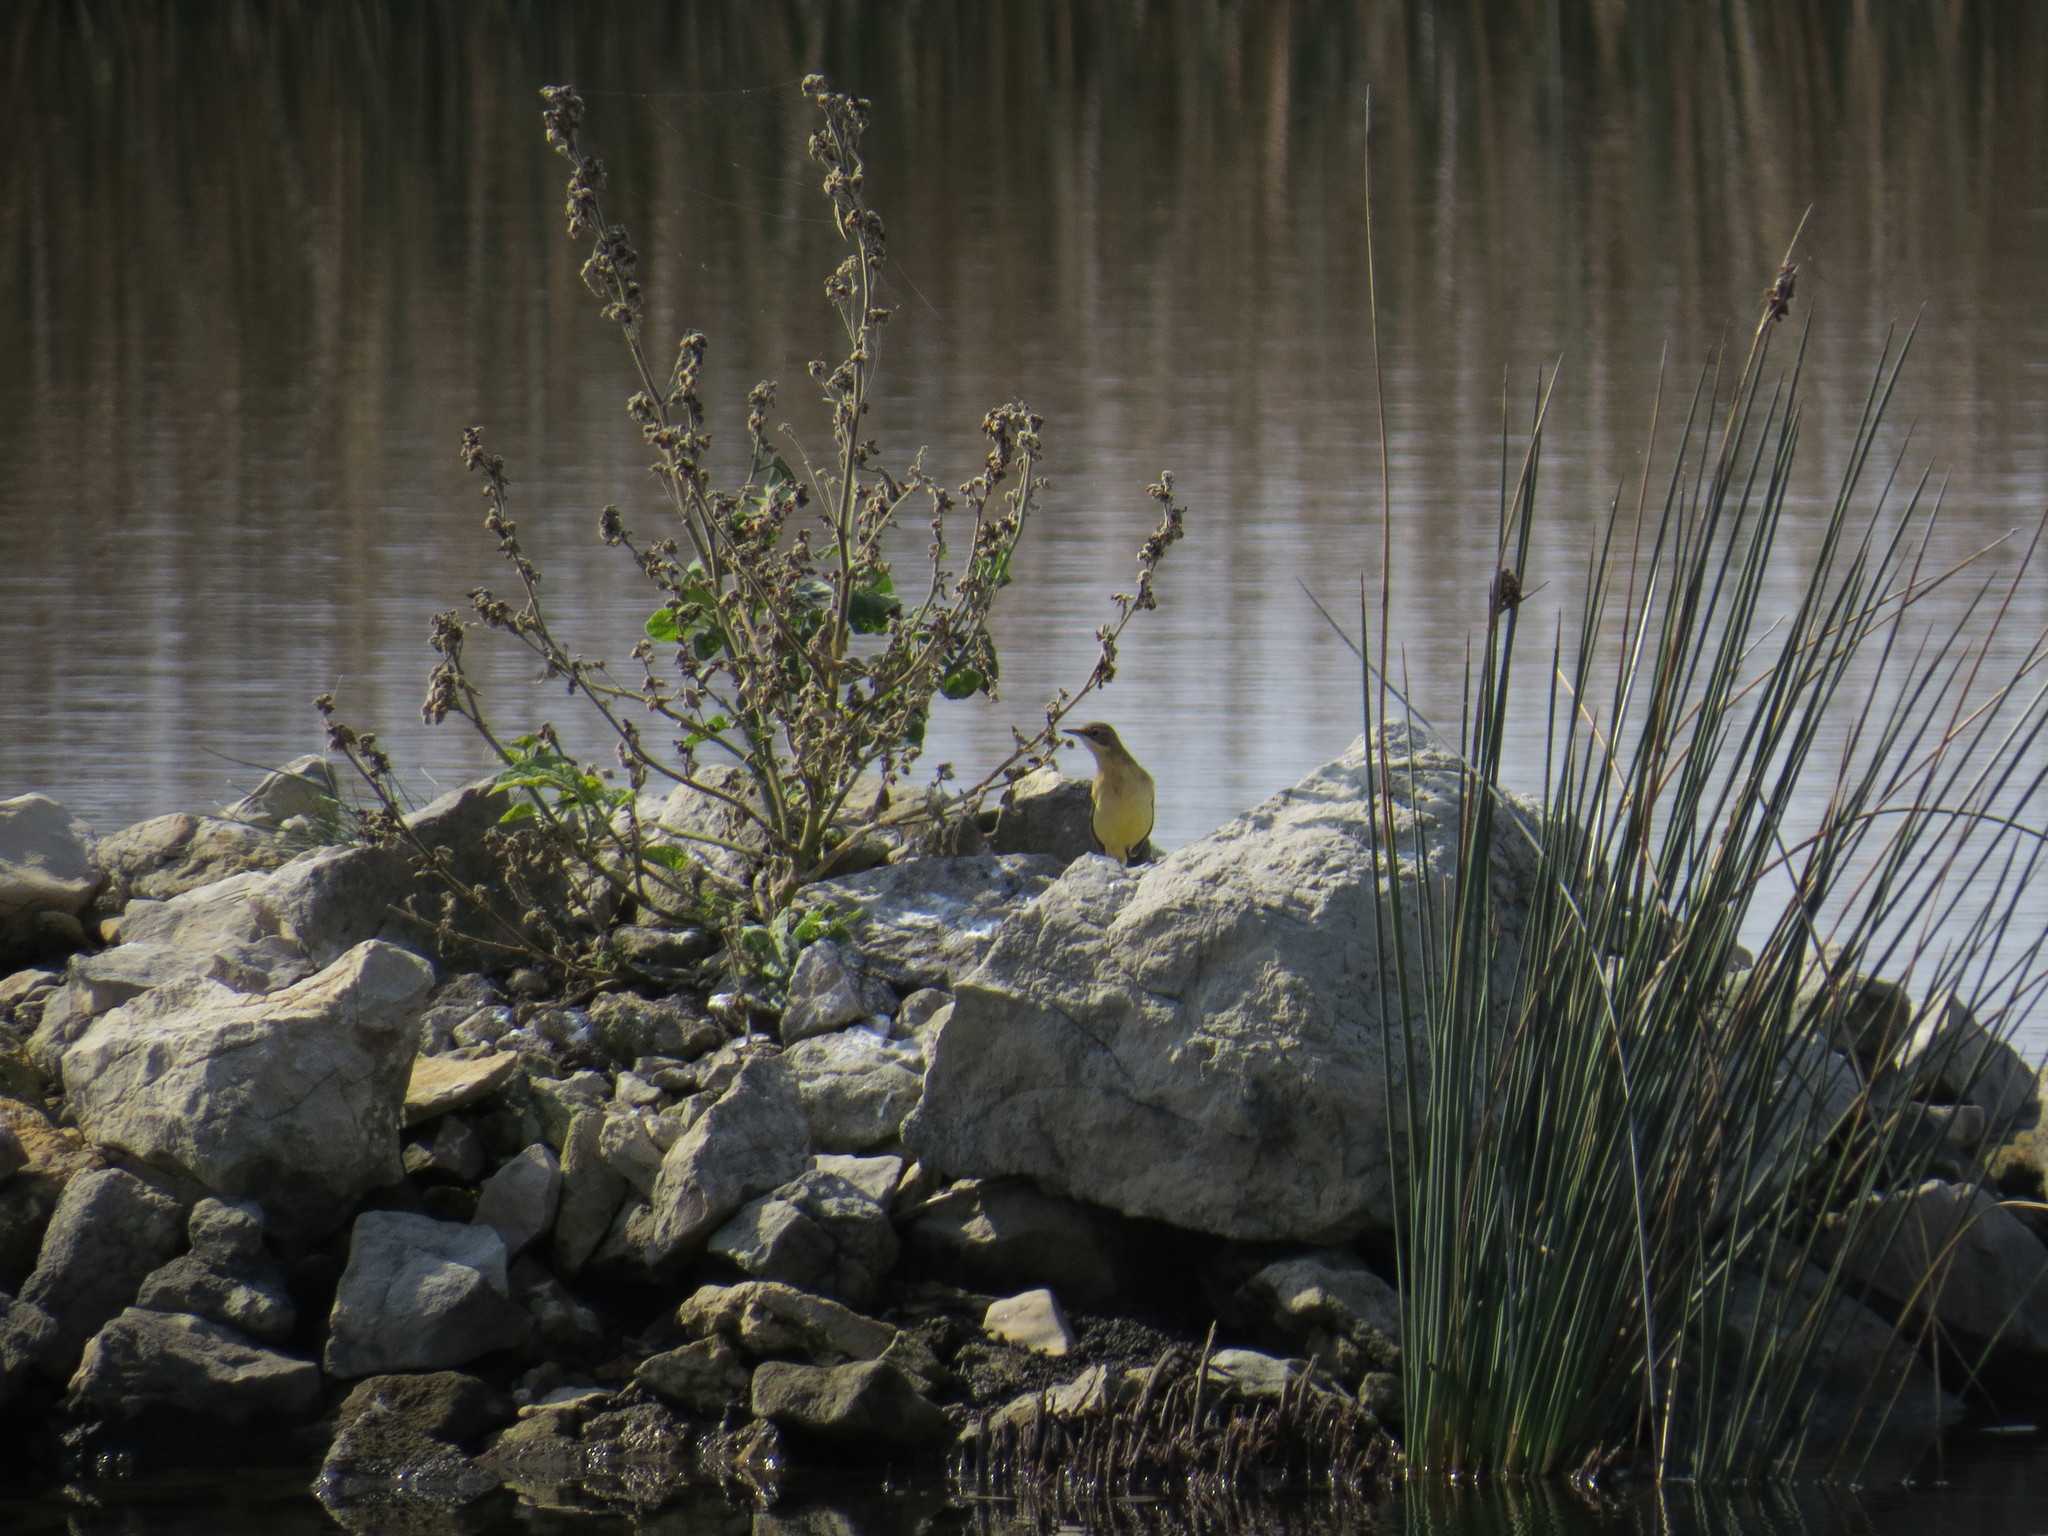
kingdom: Animalia
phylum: Chordata
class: Aves
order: Passeriformes
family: Motacillidae
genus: Motacilla
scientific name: Motacilla flava
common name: Western yellow wagtail
